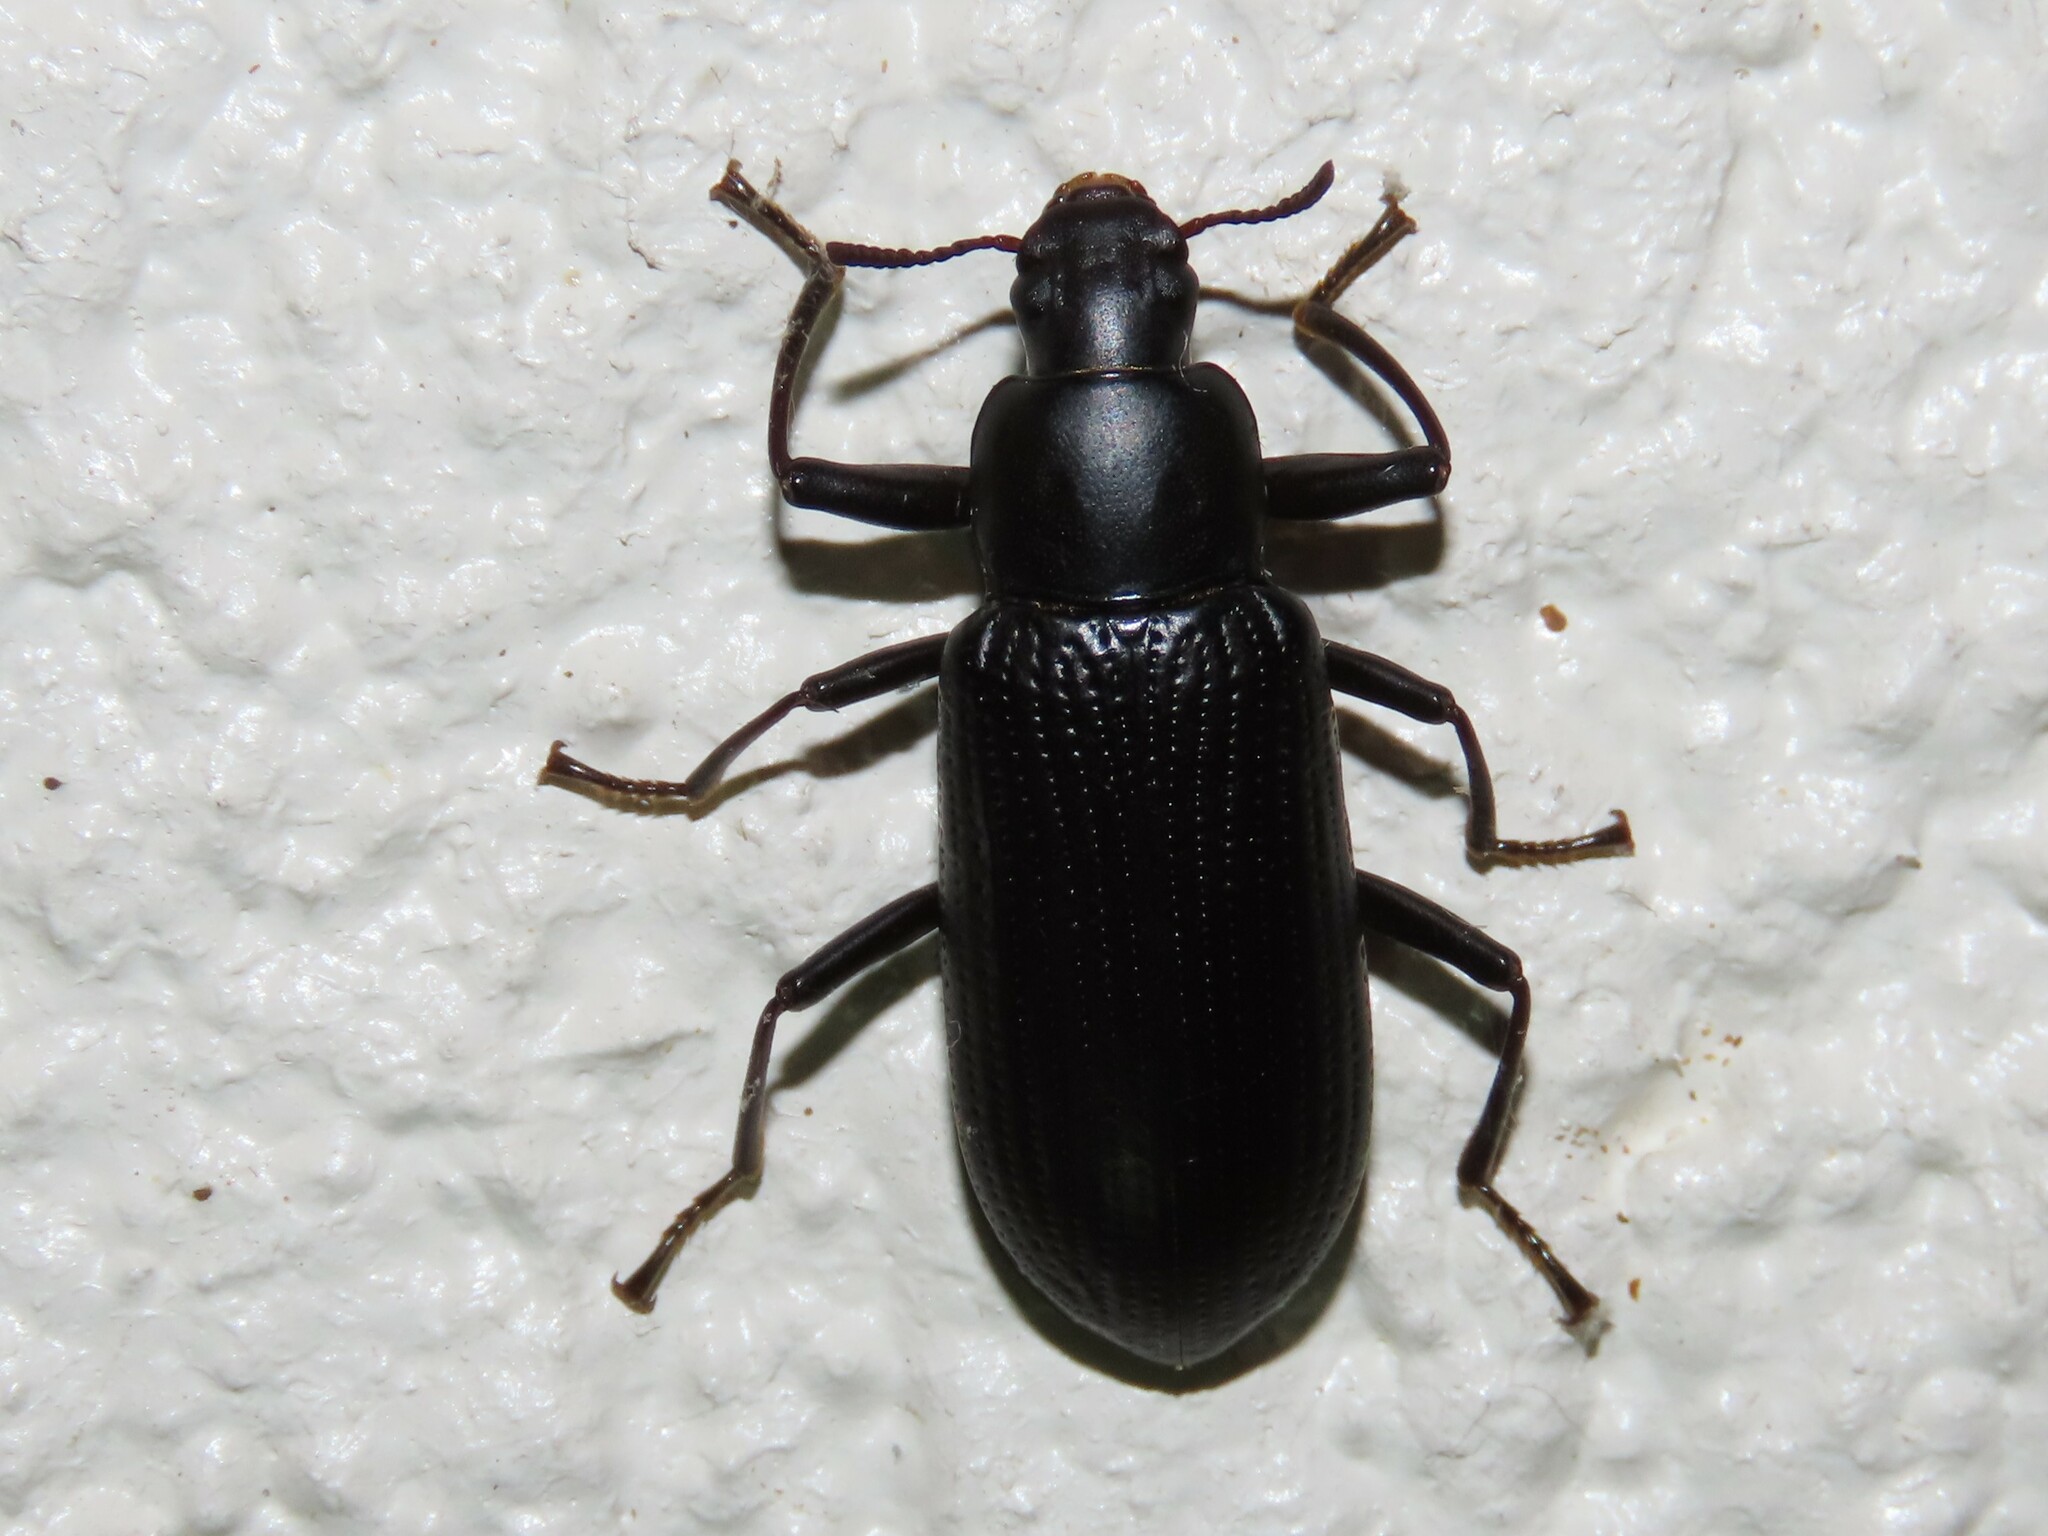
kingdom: Animalia
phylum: Arthropoda
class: Insecta
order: Coleoptera
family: Tenebrionidae
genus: Alobates
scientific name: Alobates
